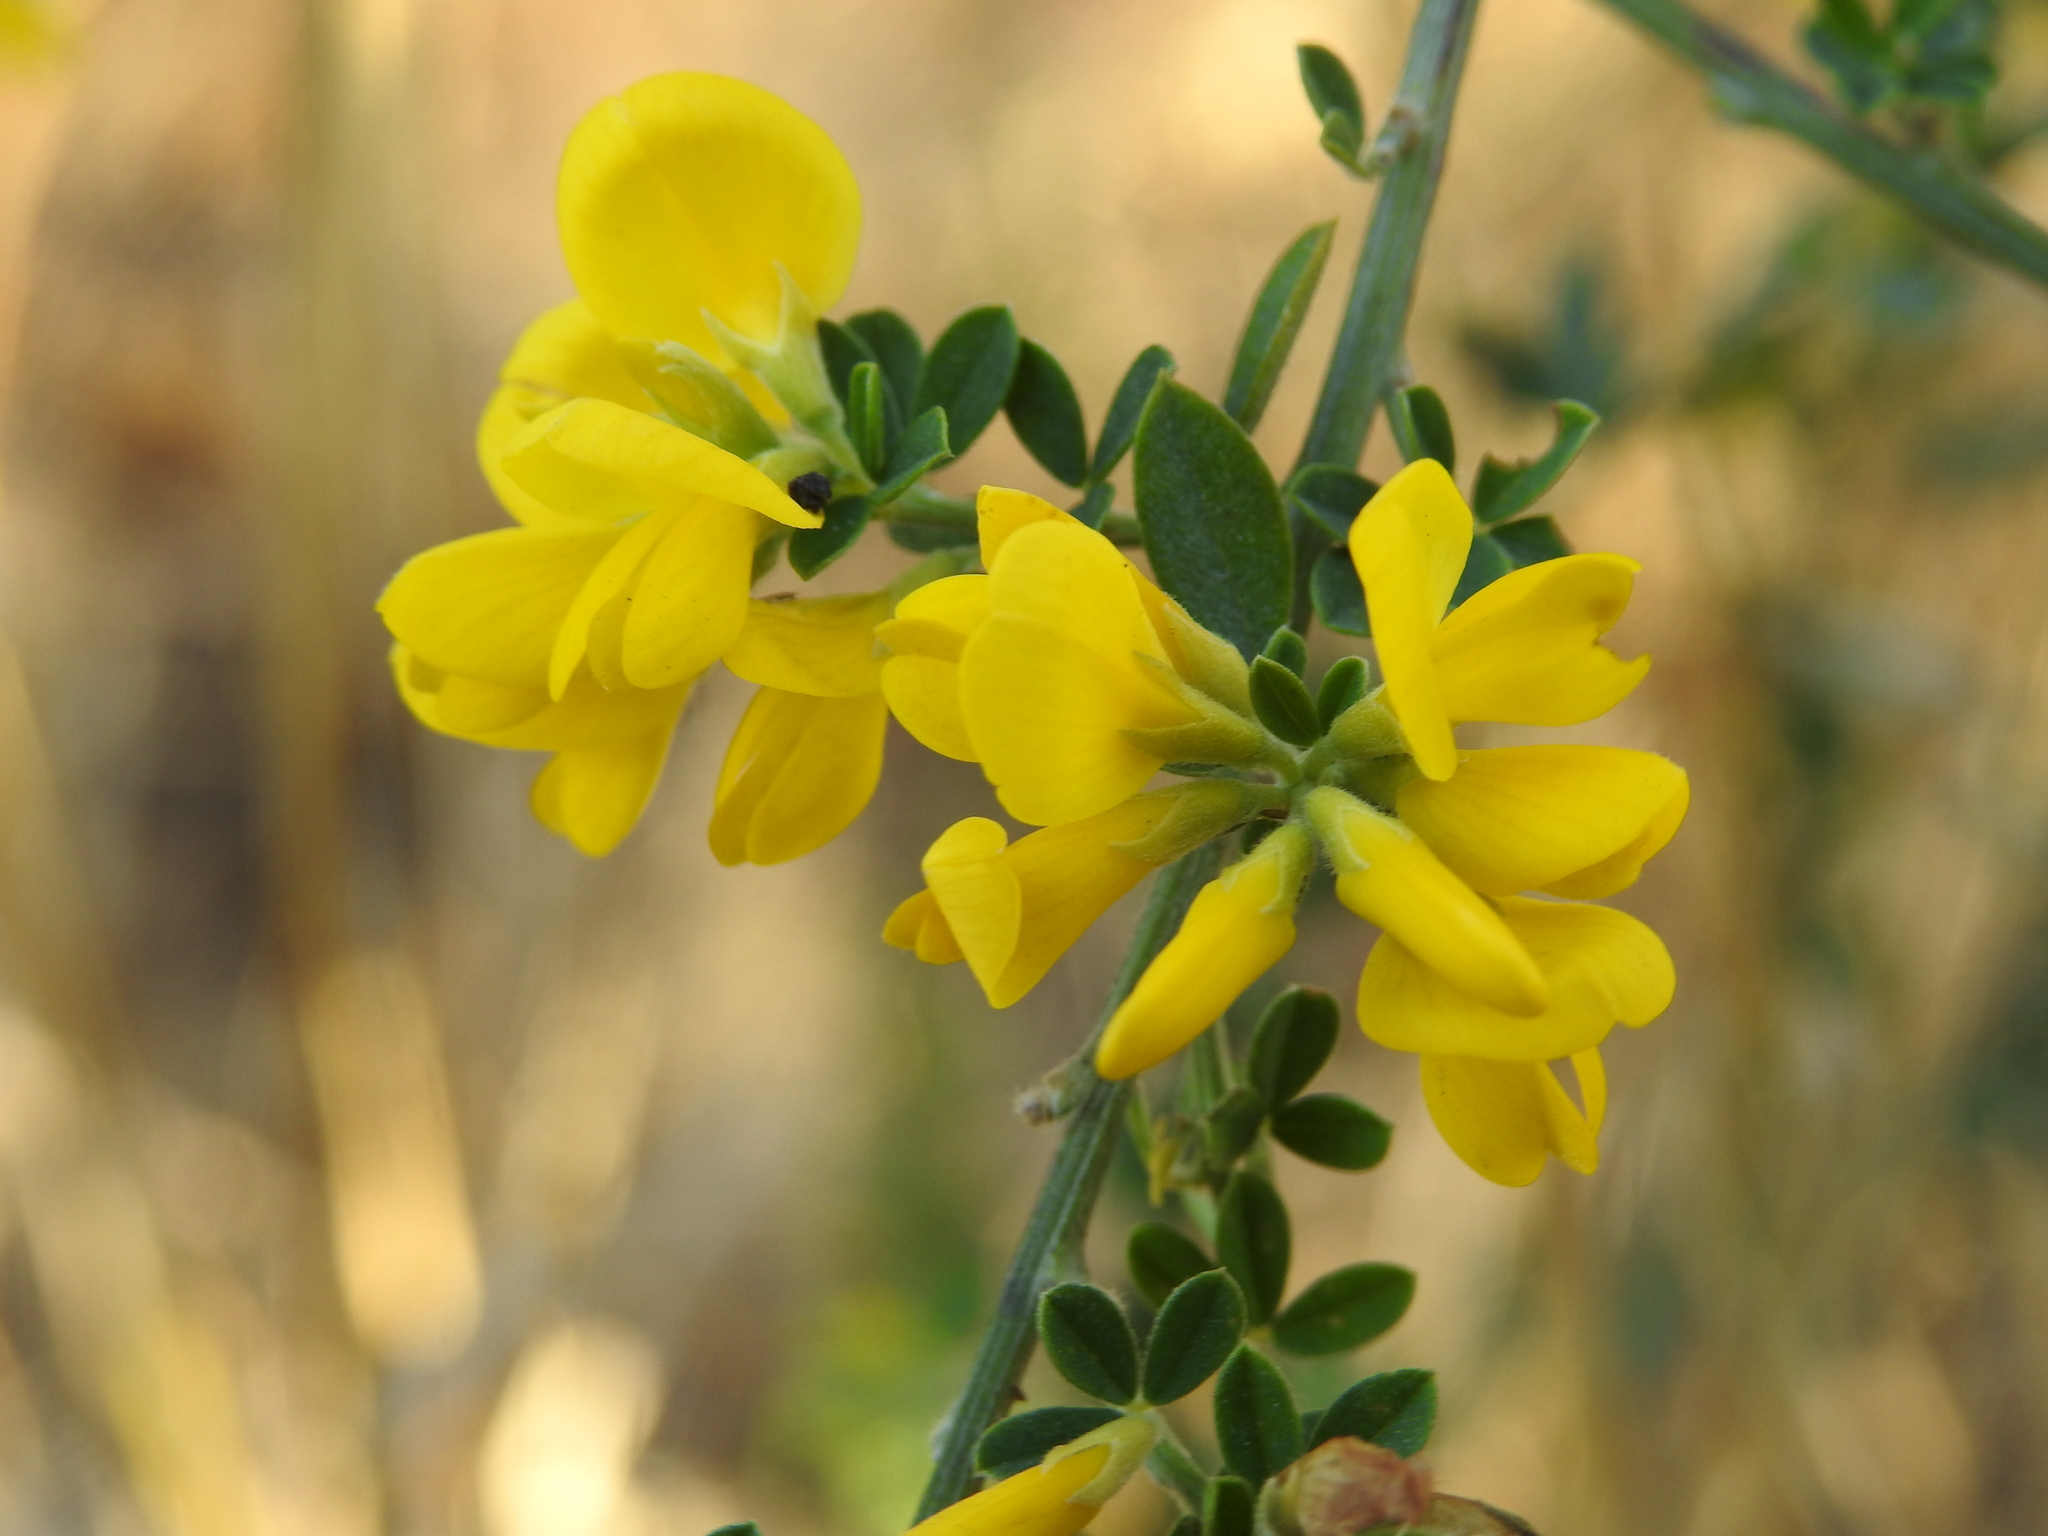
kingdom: Plantae
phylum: Tracheophyta
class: Magnoliopsida
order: Fabales
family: Fabaceae
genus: Genista
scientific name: Genista monspessulana
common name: Montpellier broom
